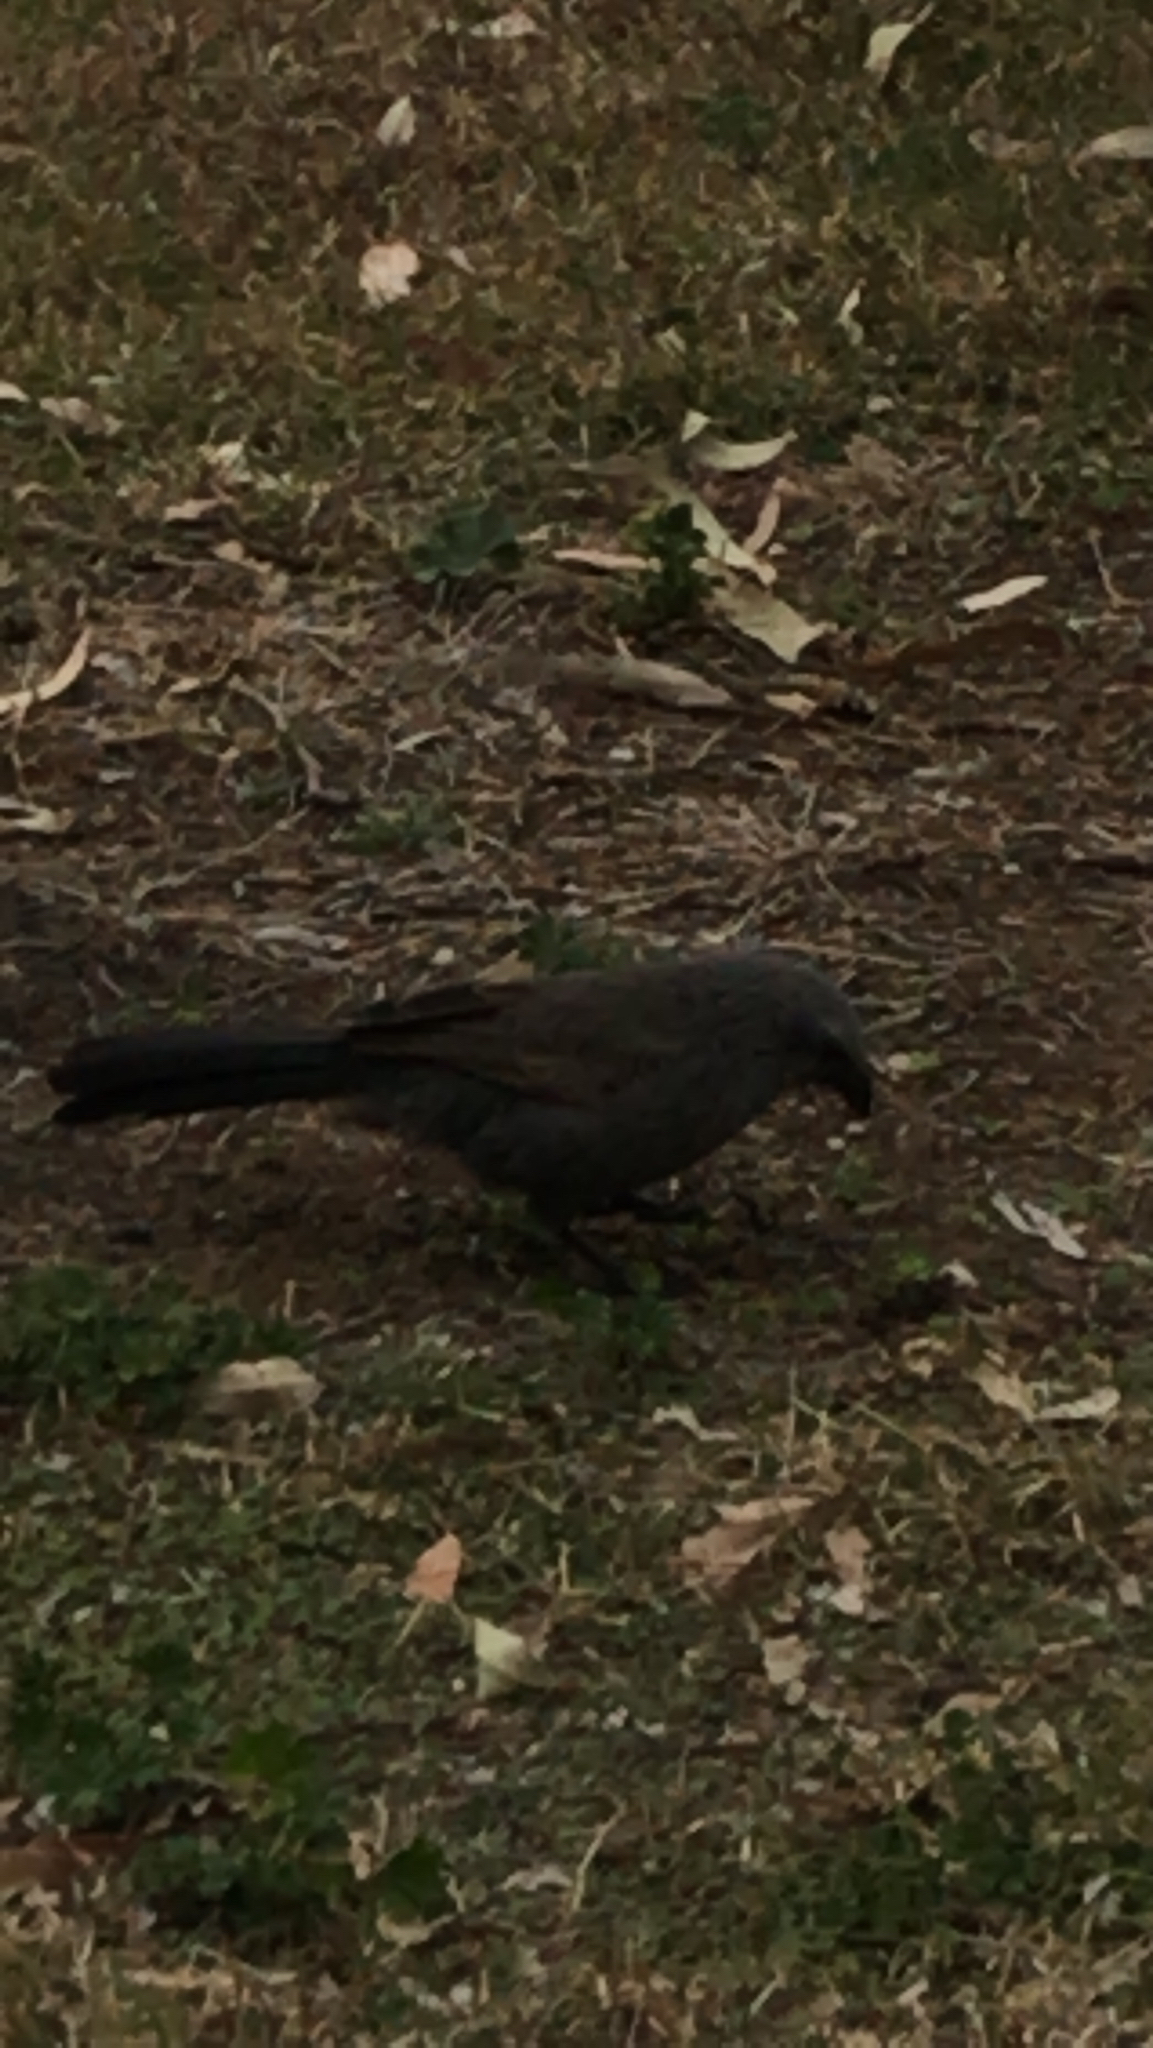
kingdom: Animalia
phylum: Chordata
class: Aves
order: Passeriformes
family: Corcoracidae
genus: Struthidea
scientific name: Struthidea cinerea
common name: Apostlebird
